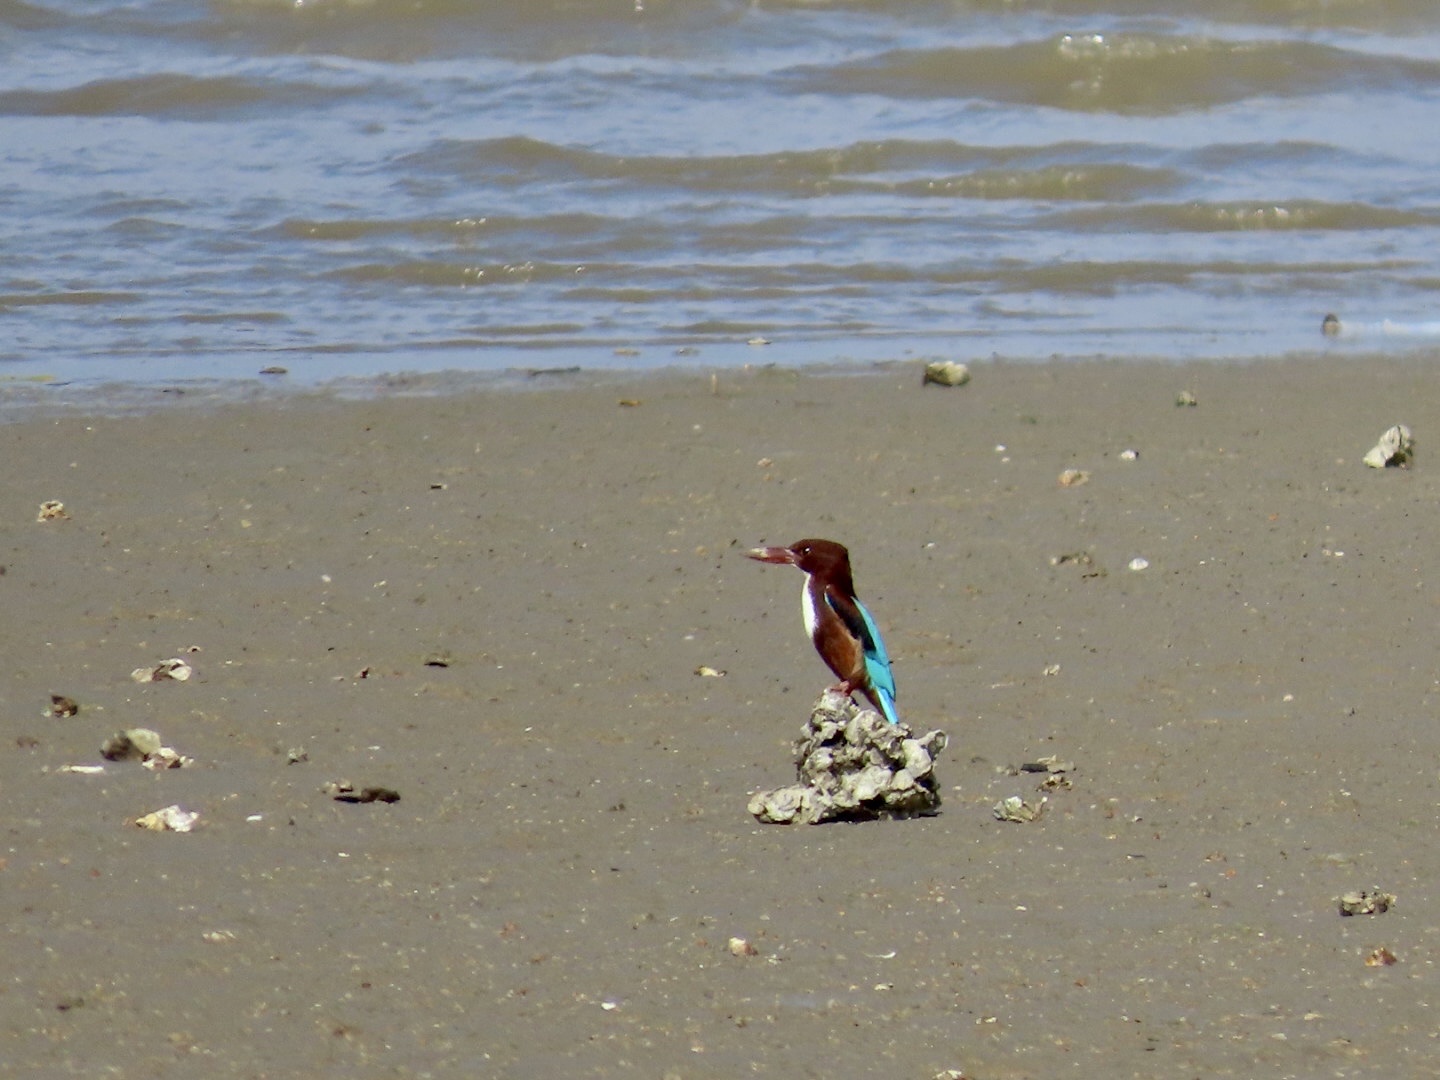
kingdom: Animalia
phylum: Chordata
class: Aves
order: Coraciiformes
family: Alcedinidae
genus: Halcyon
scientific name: Halcyon smyrnensis
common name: White-throated kingfisher
